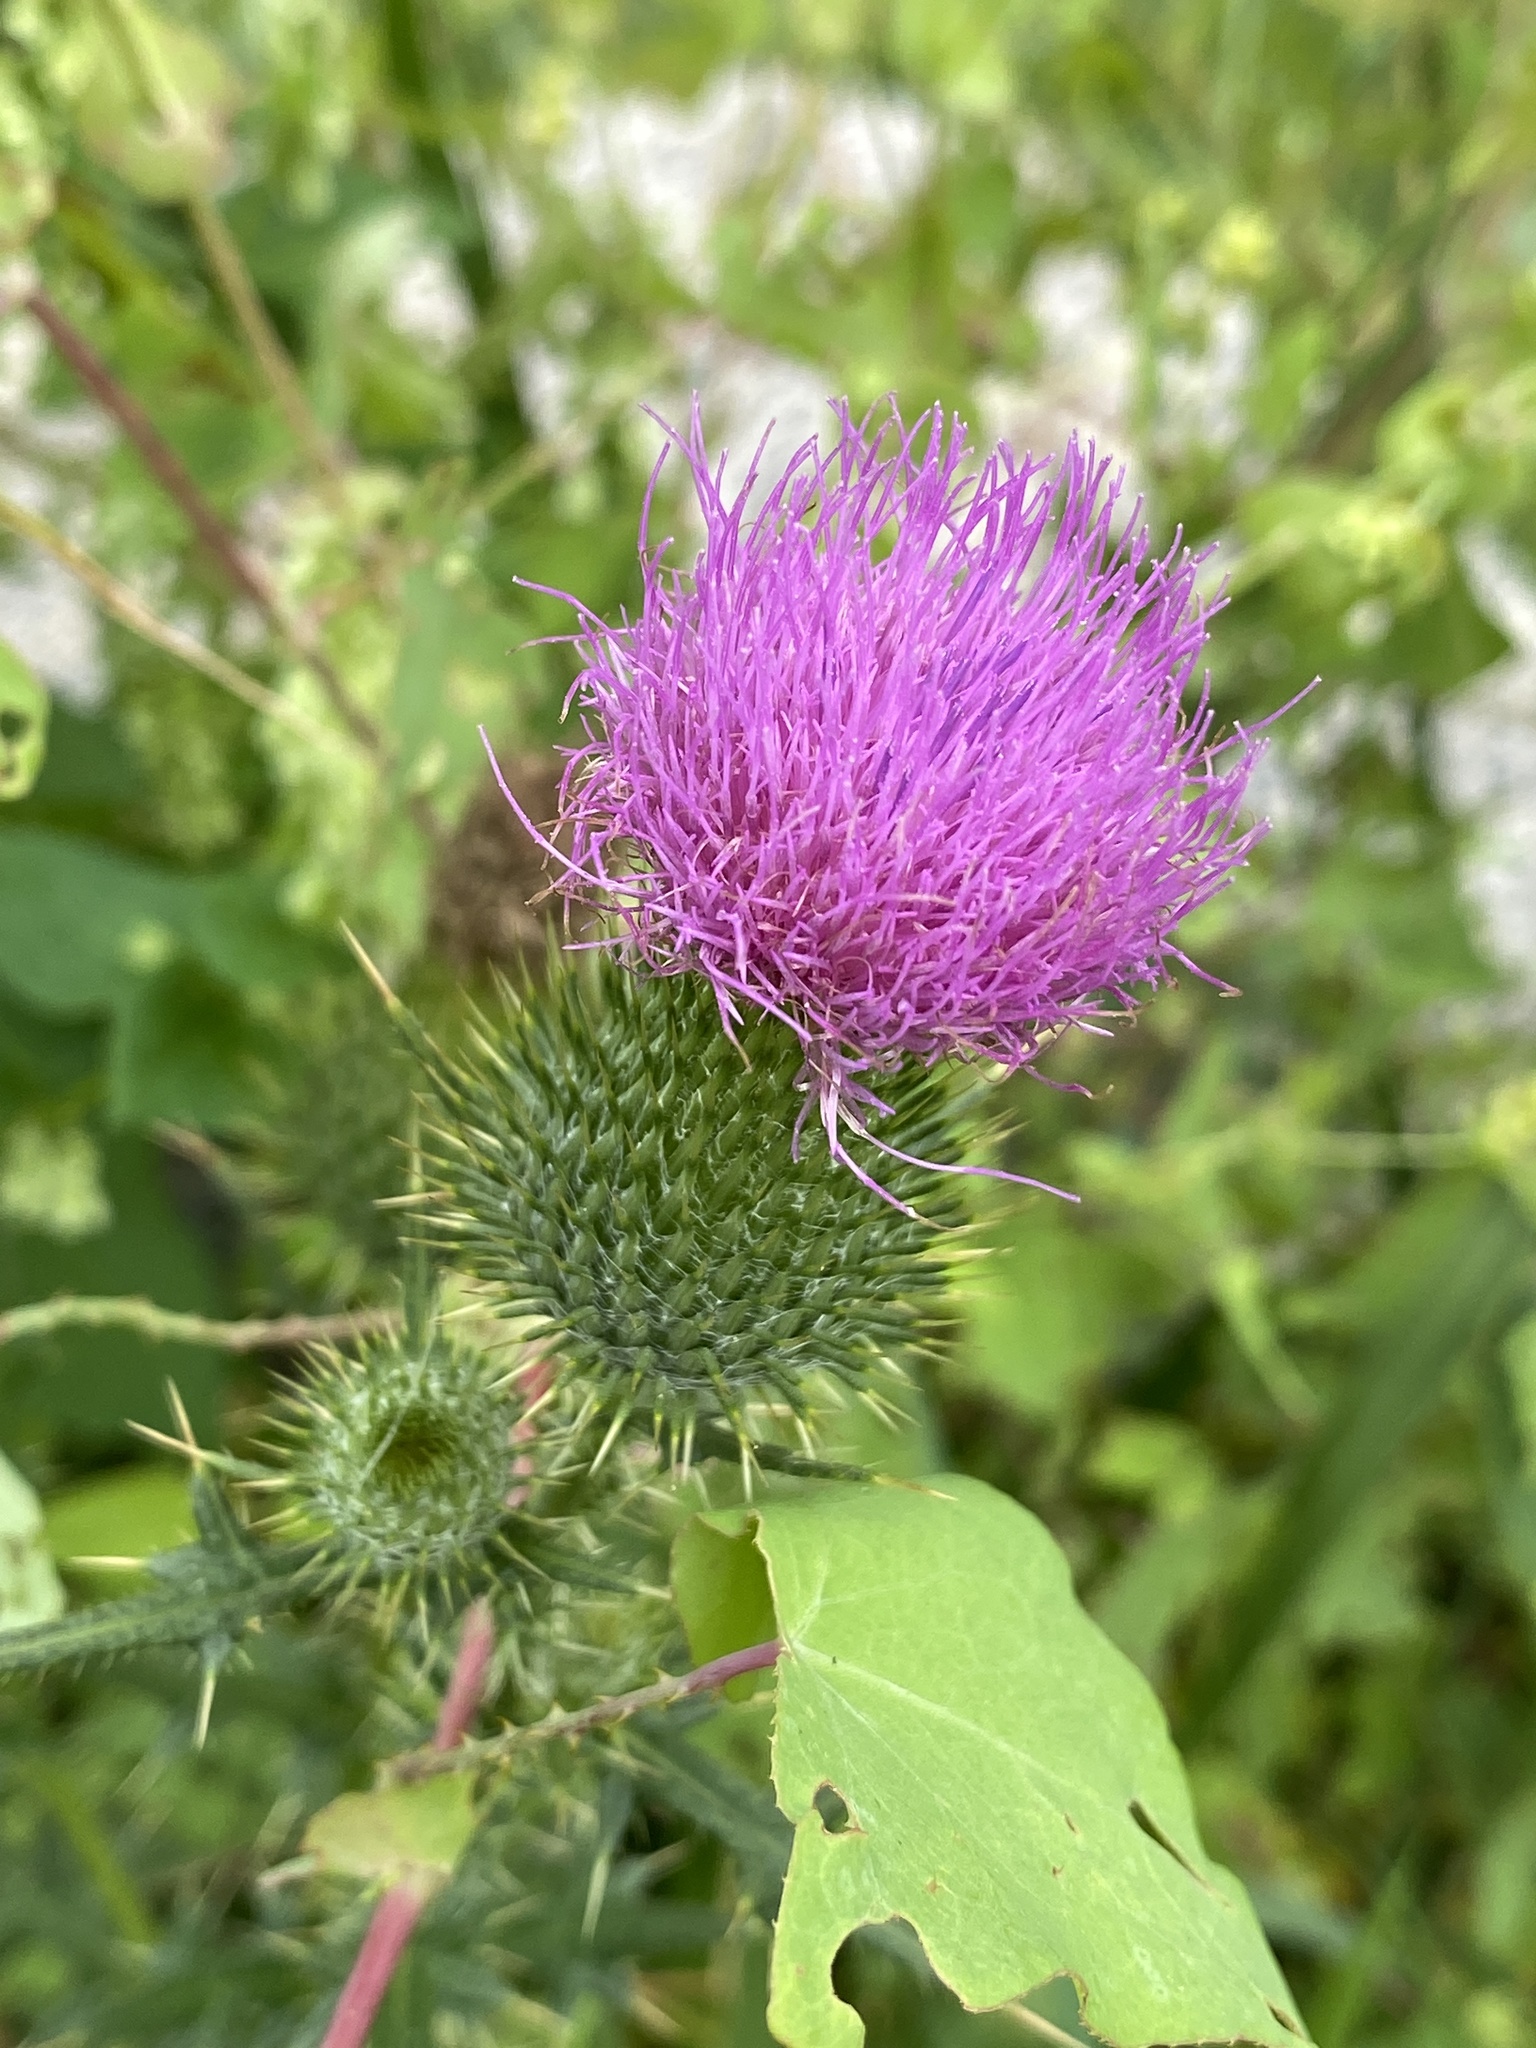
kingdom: Plantae
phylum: Tracheophyta
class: Magnoliopsida
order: Asterales
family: Asteraceae
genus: Cirsium
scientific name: Cirsium vulgare
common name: Bull thistle
